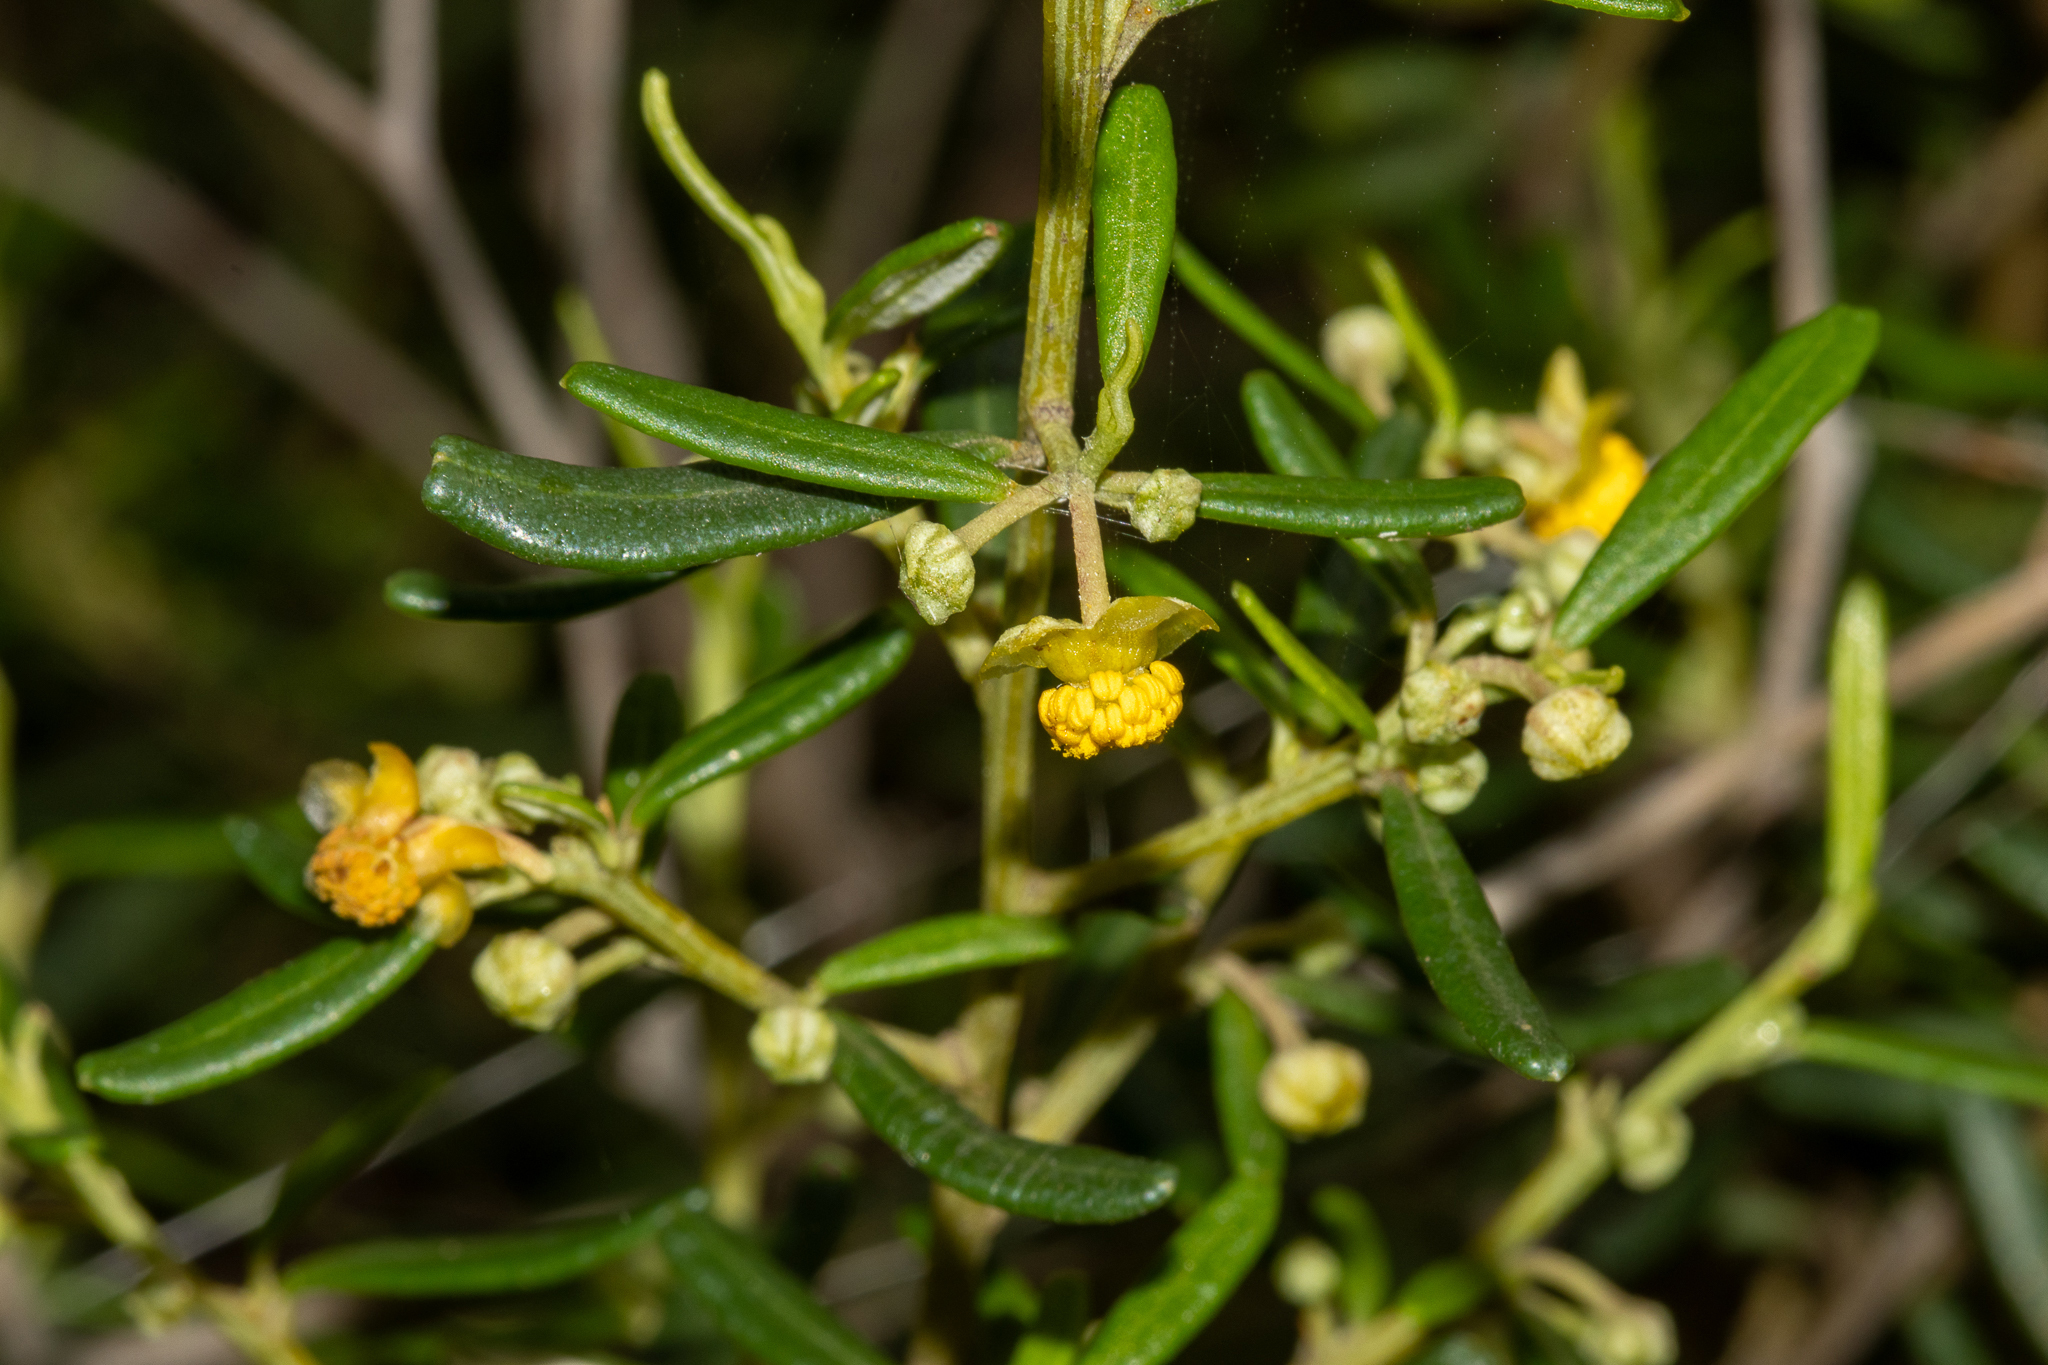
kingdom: Plantae
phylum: Tracheophyta
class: Magnoliopsida
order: Malpighiales
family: Euphorbiaceae
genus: Beyeria
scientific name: Beyeria lechenaultii
